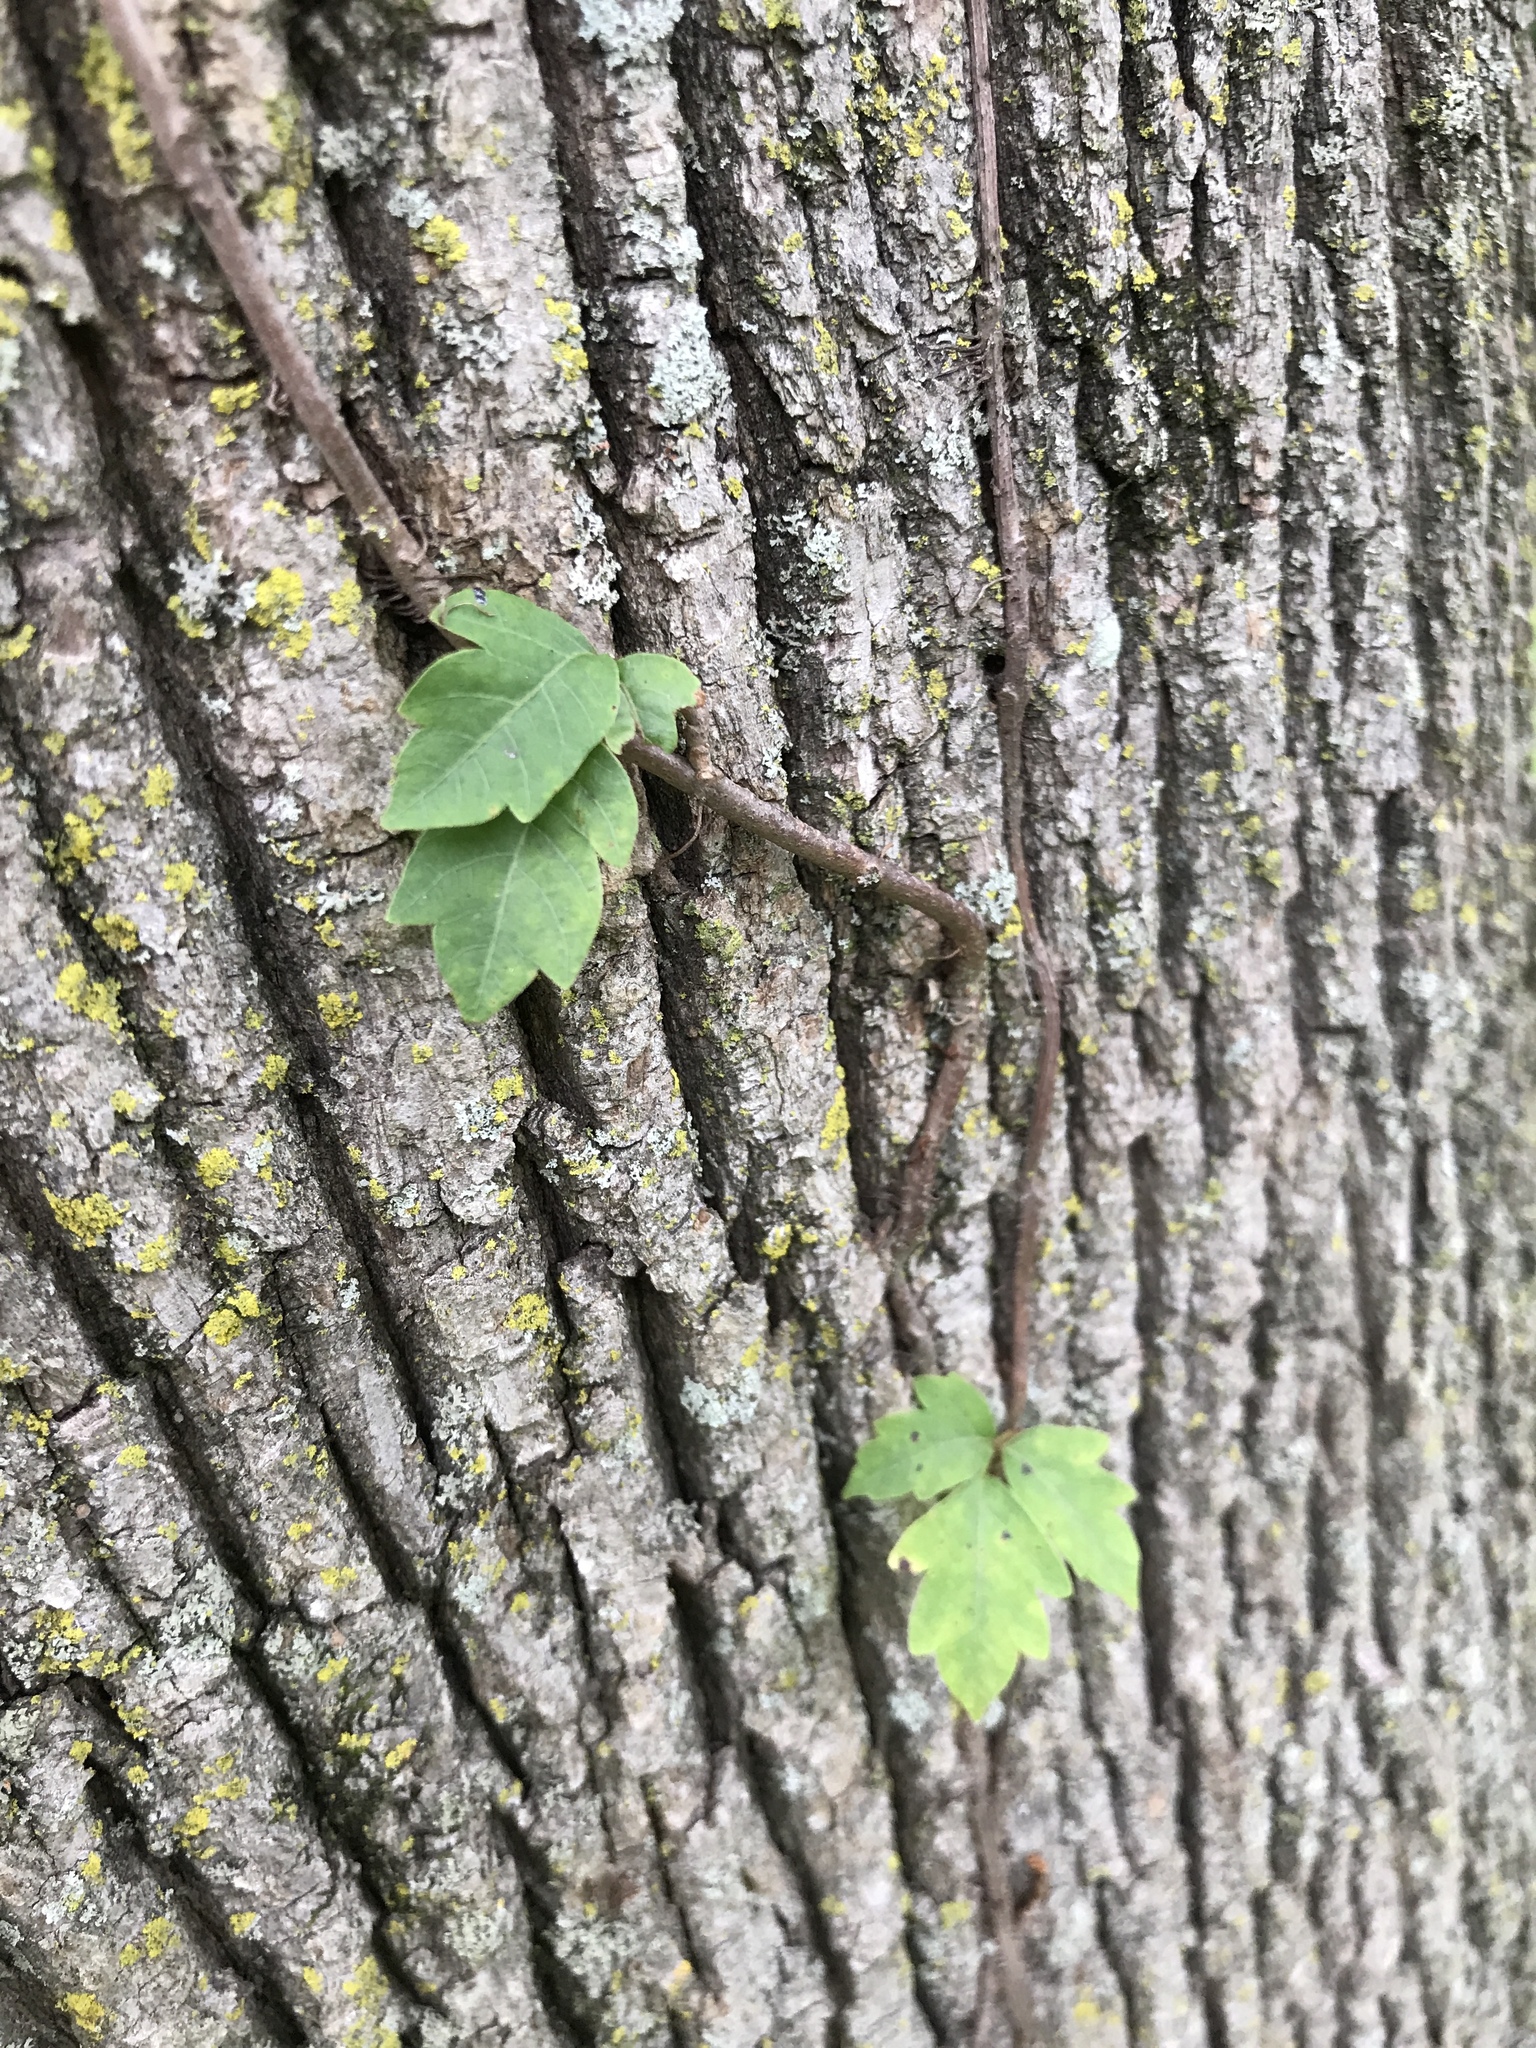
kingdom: Plantae
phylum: Tracheophyta
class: Magnoliopsida
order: Sapindales
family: Anacardiaceae
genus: Toxicodendron
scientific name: Toxicodendron radicans
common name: Poison ivy
